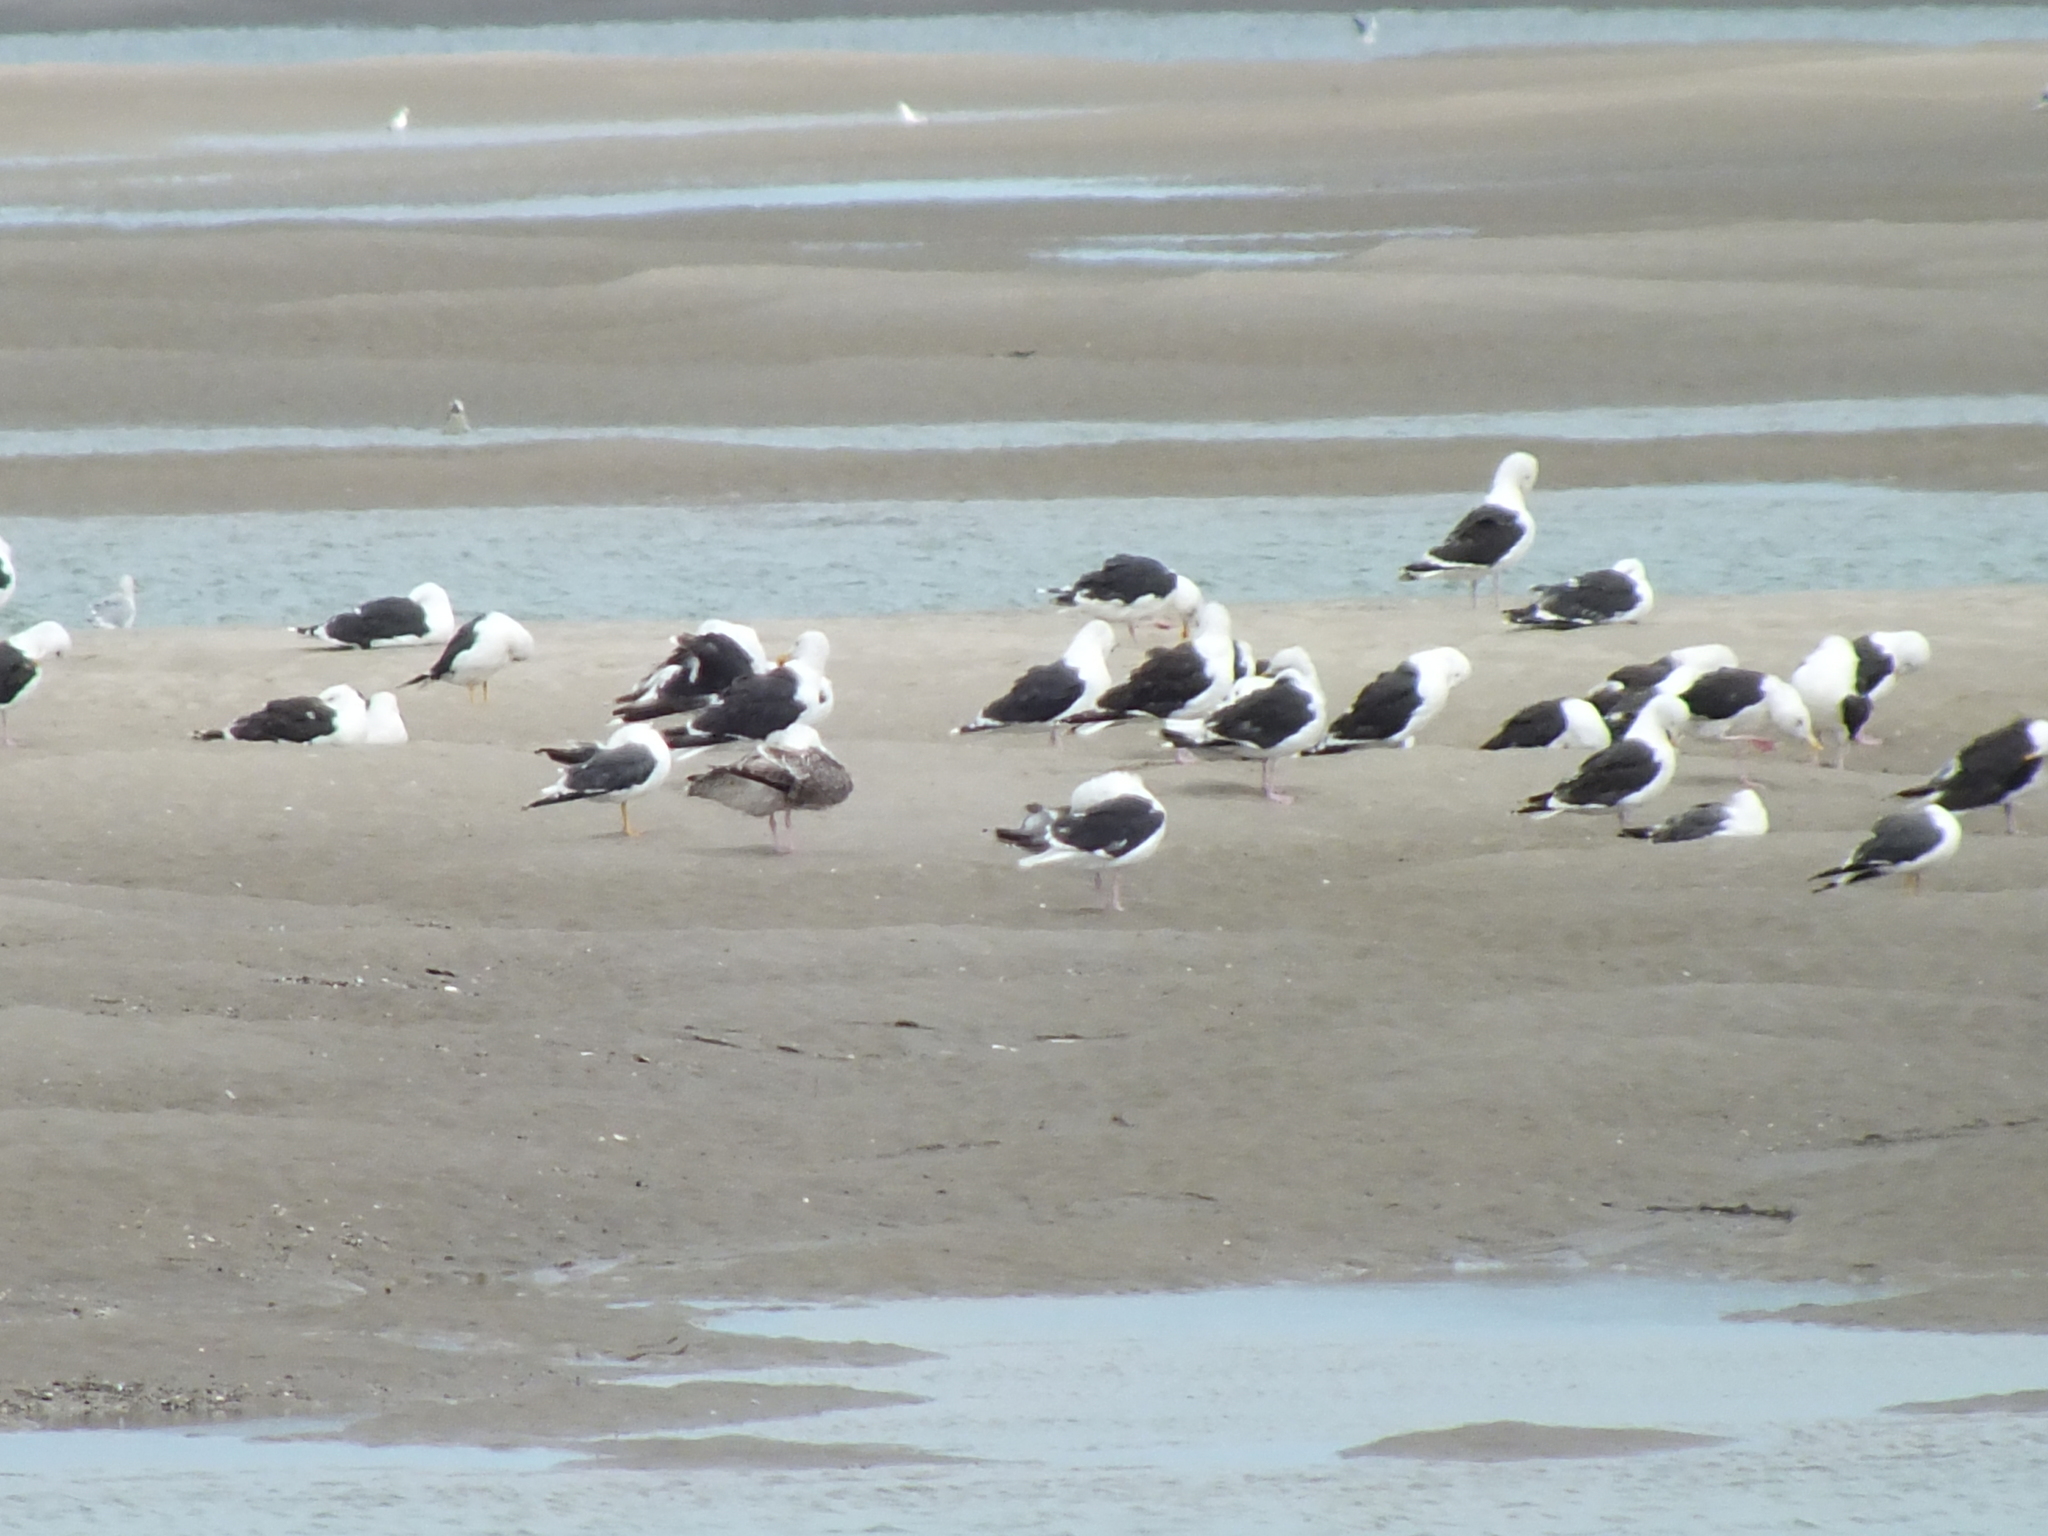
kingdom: Animalia
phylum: Chordata
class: Aves
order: Charadriiformes
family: Laridae
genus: Larus
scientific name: Larus marinus
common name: Great black-backed gull
